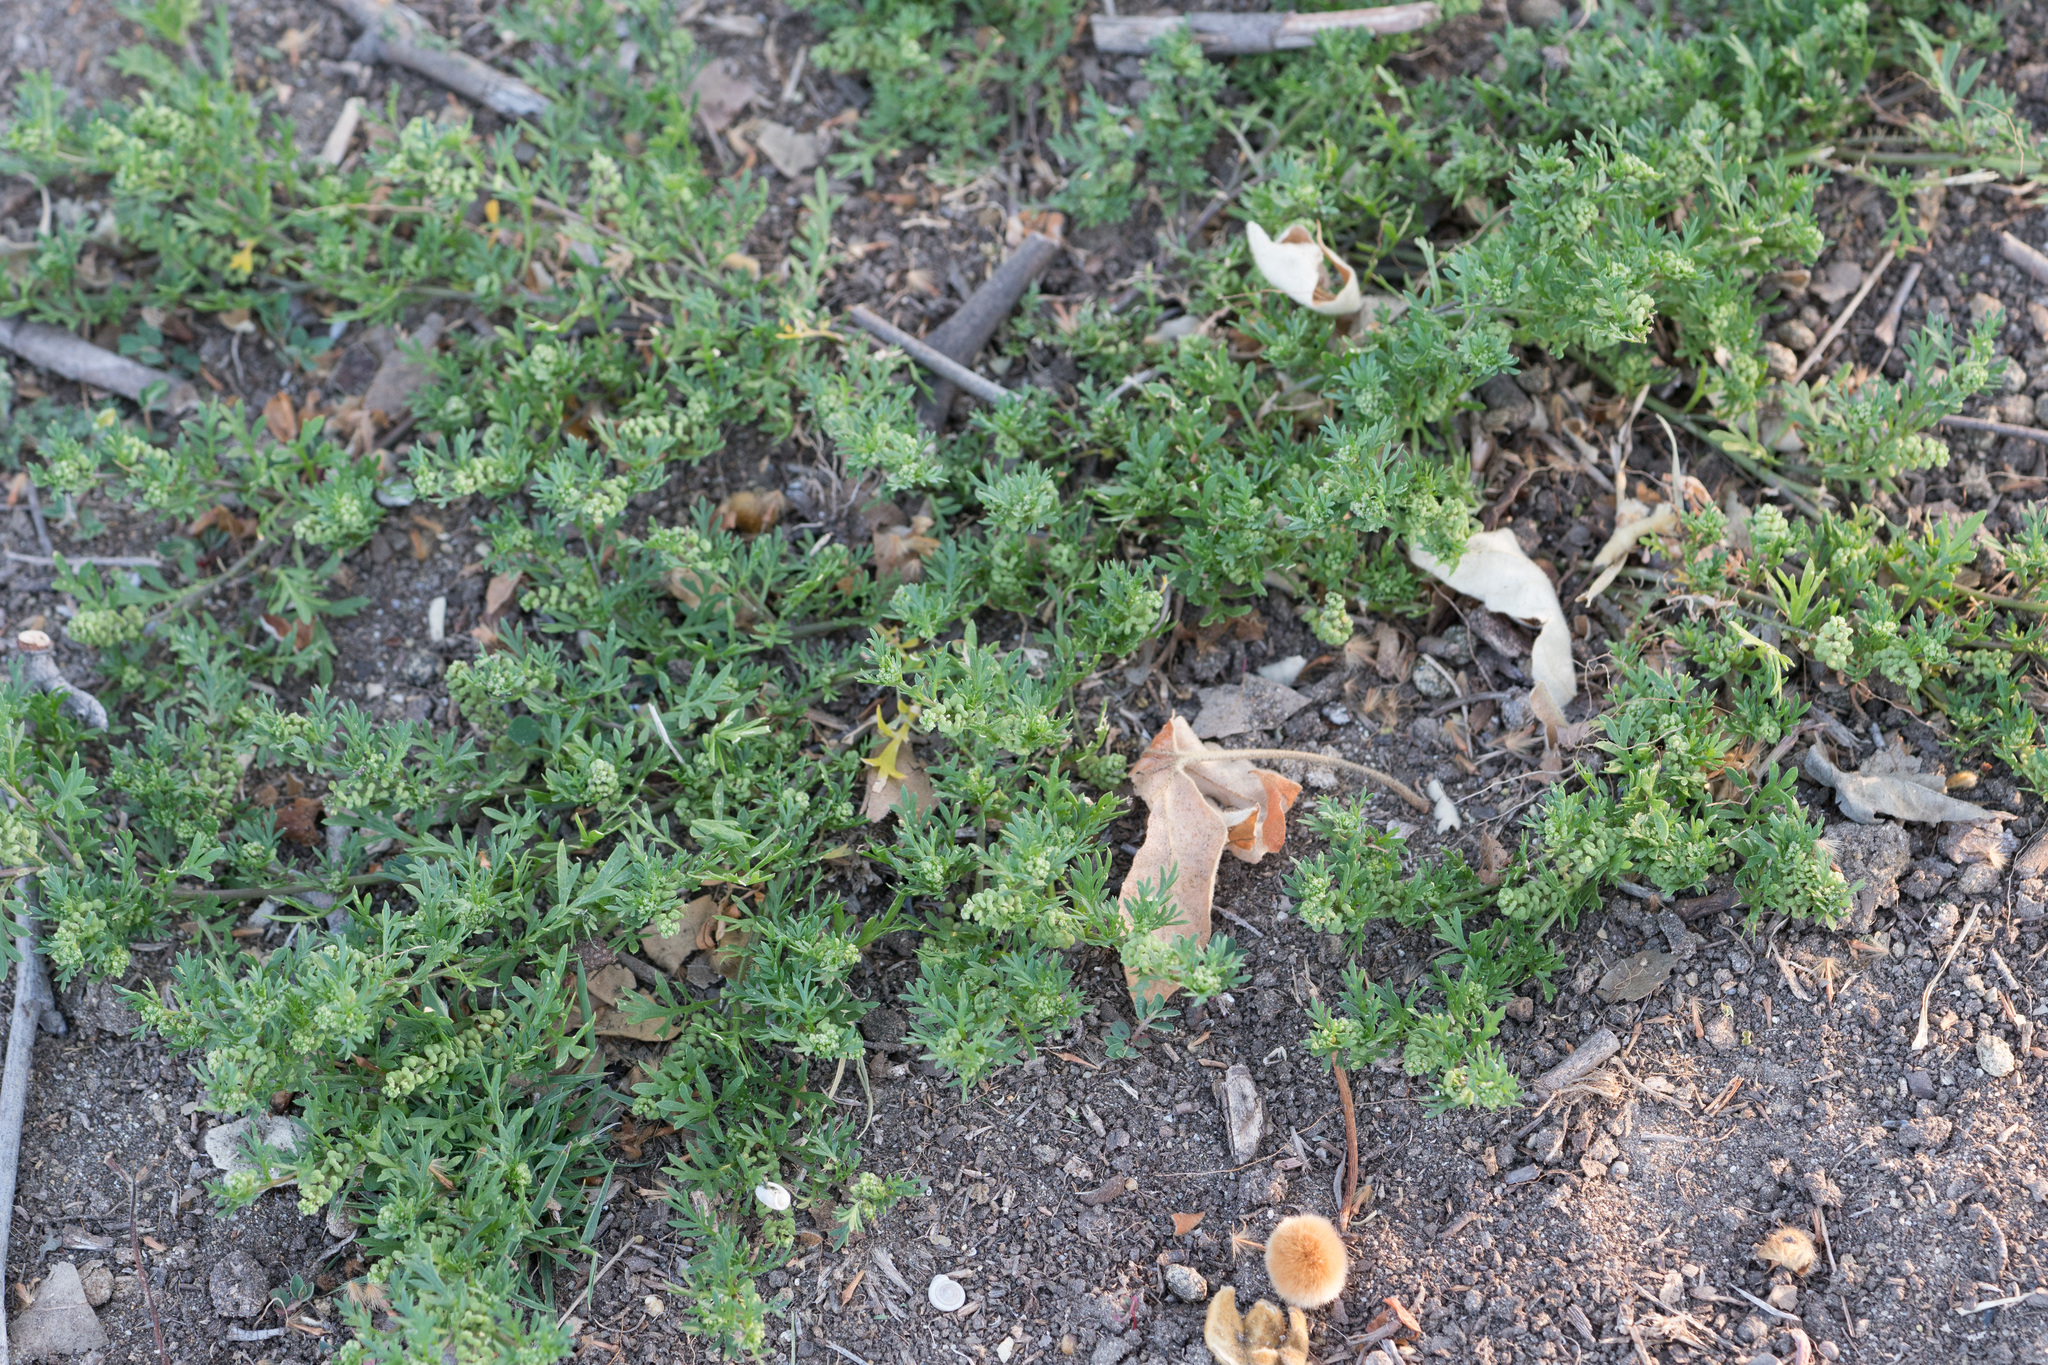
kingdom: Plantae
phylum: Tracheophyta
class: Magnoliopsida
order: Brassicales
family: Brassicaceae
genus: Lepidium
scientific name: Lepidium didymum
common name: Lesser swinecress
